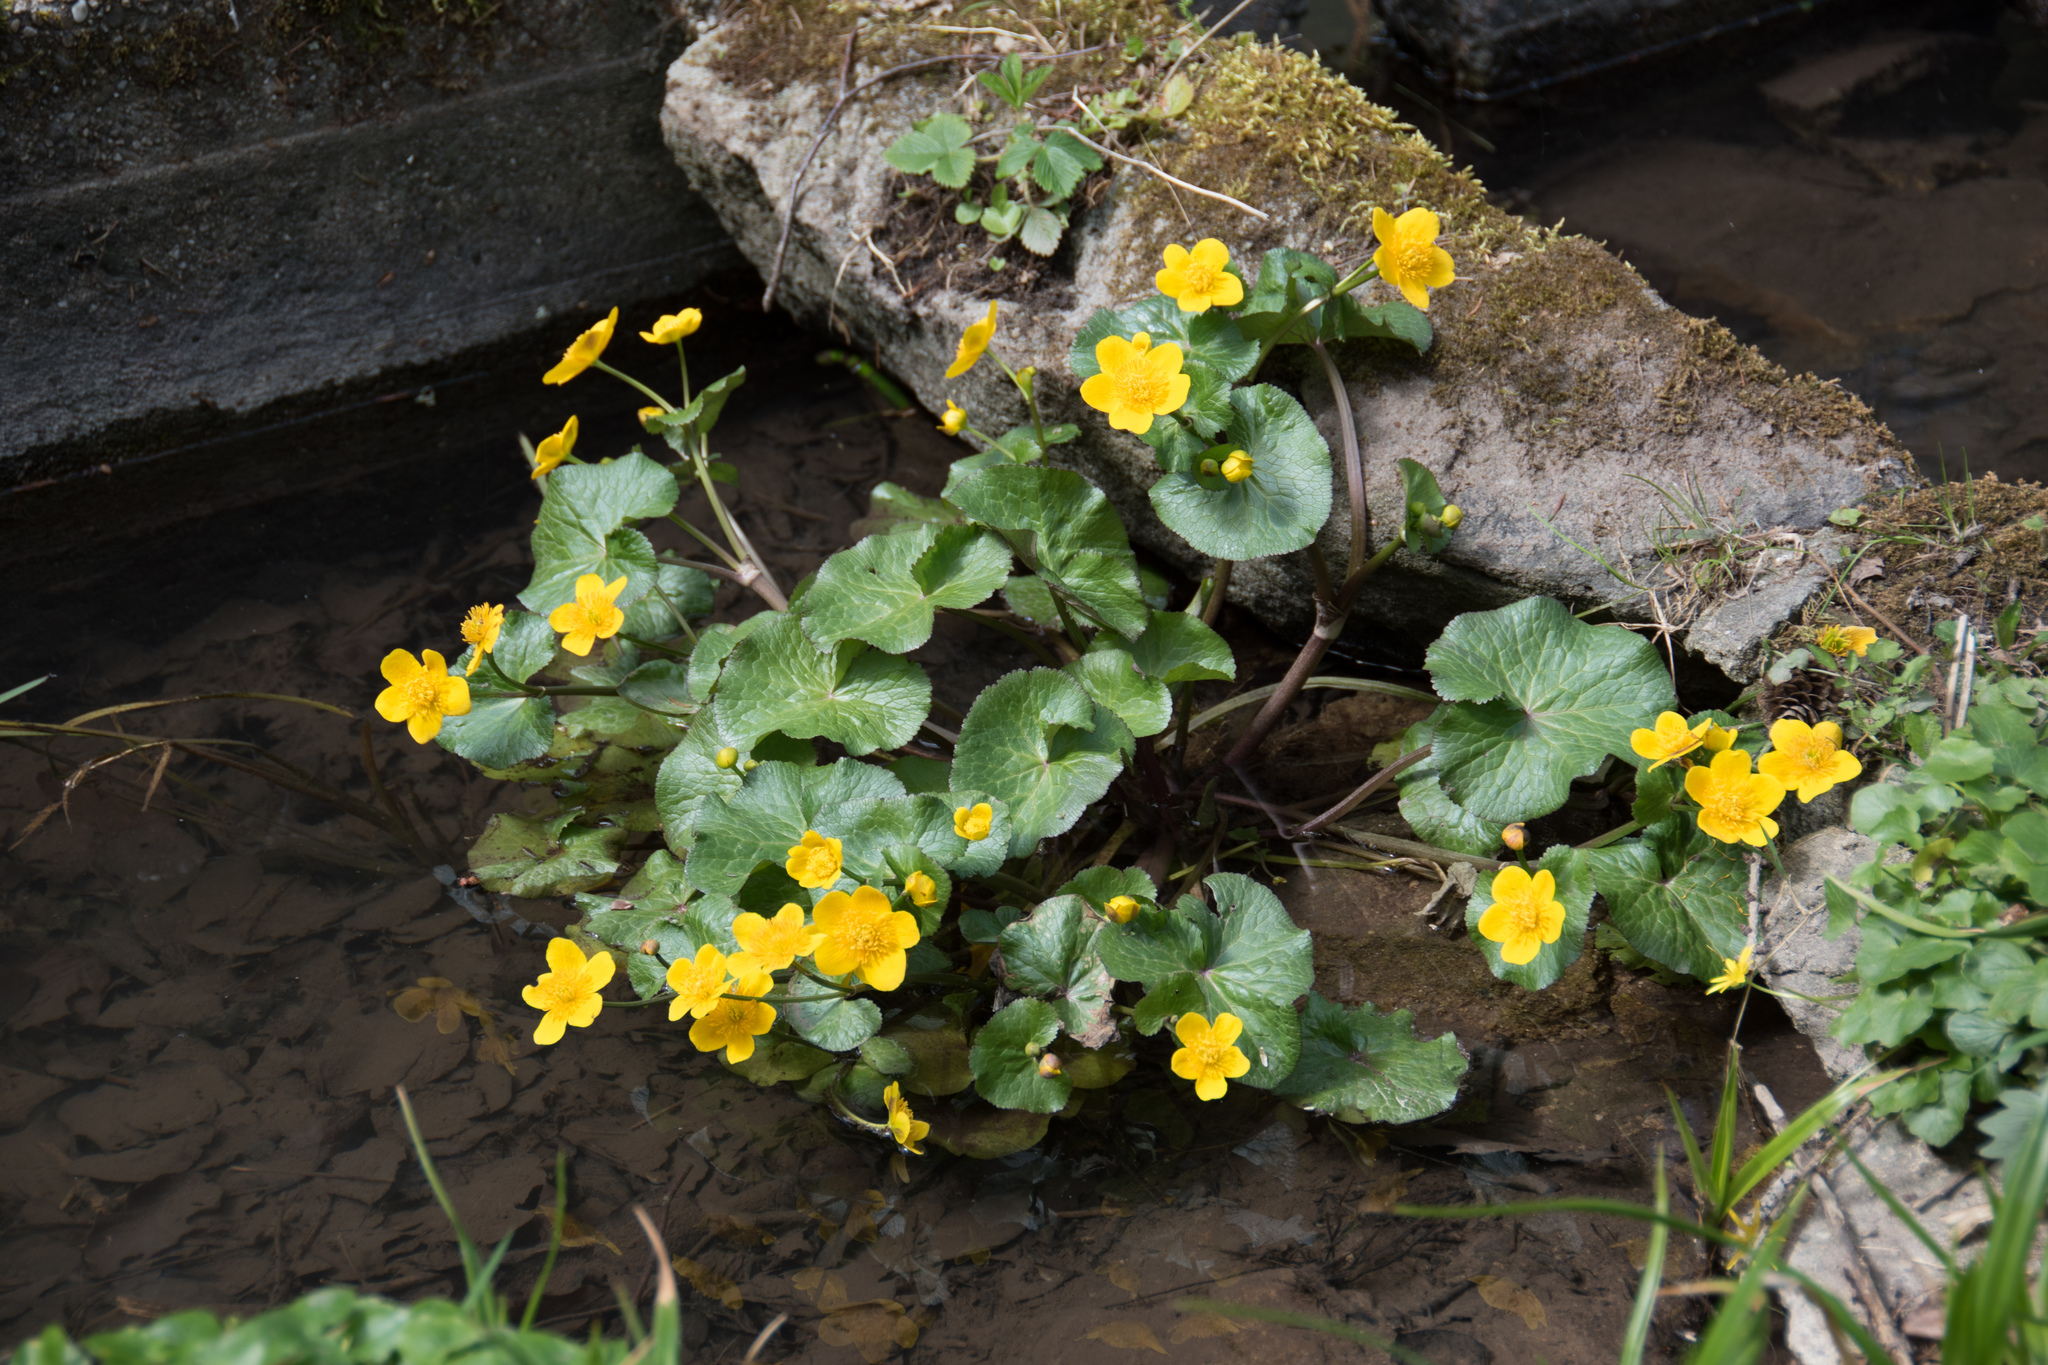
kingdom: Plantae
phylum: Tracheophyta
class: Magnoliopsida
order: Ranunculales
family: Ranunculaceae
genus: Caltha
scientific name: Caltha palustris
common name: Marsh marigold
